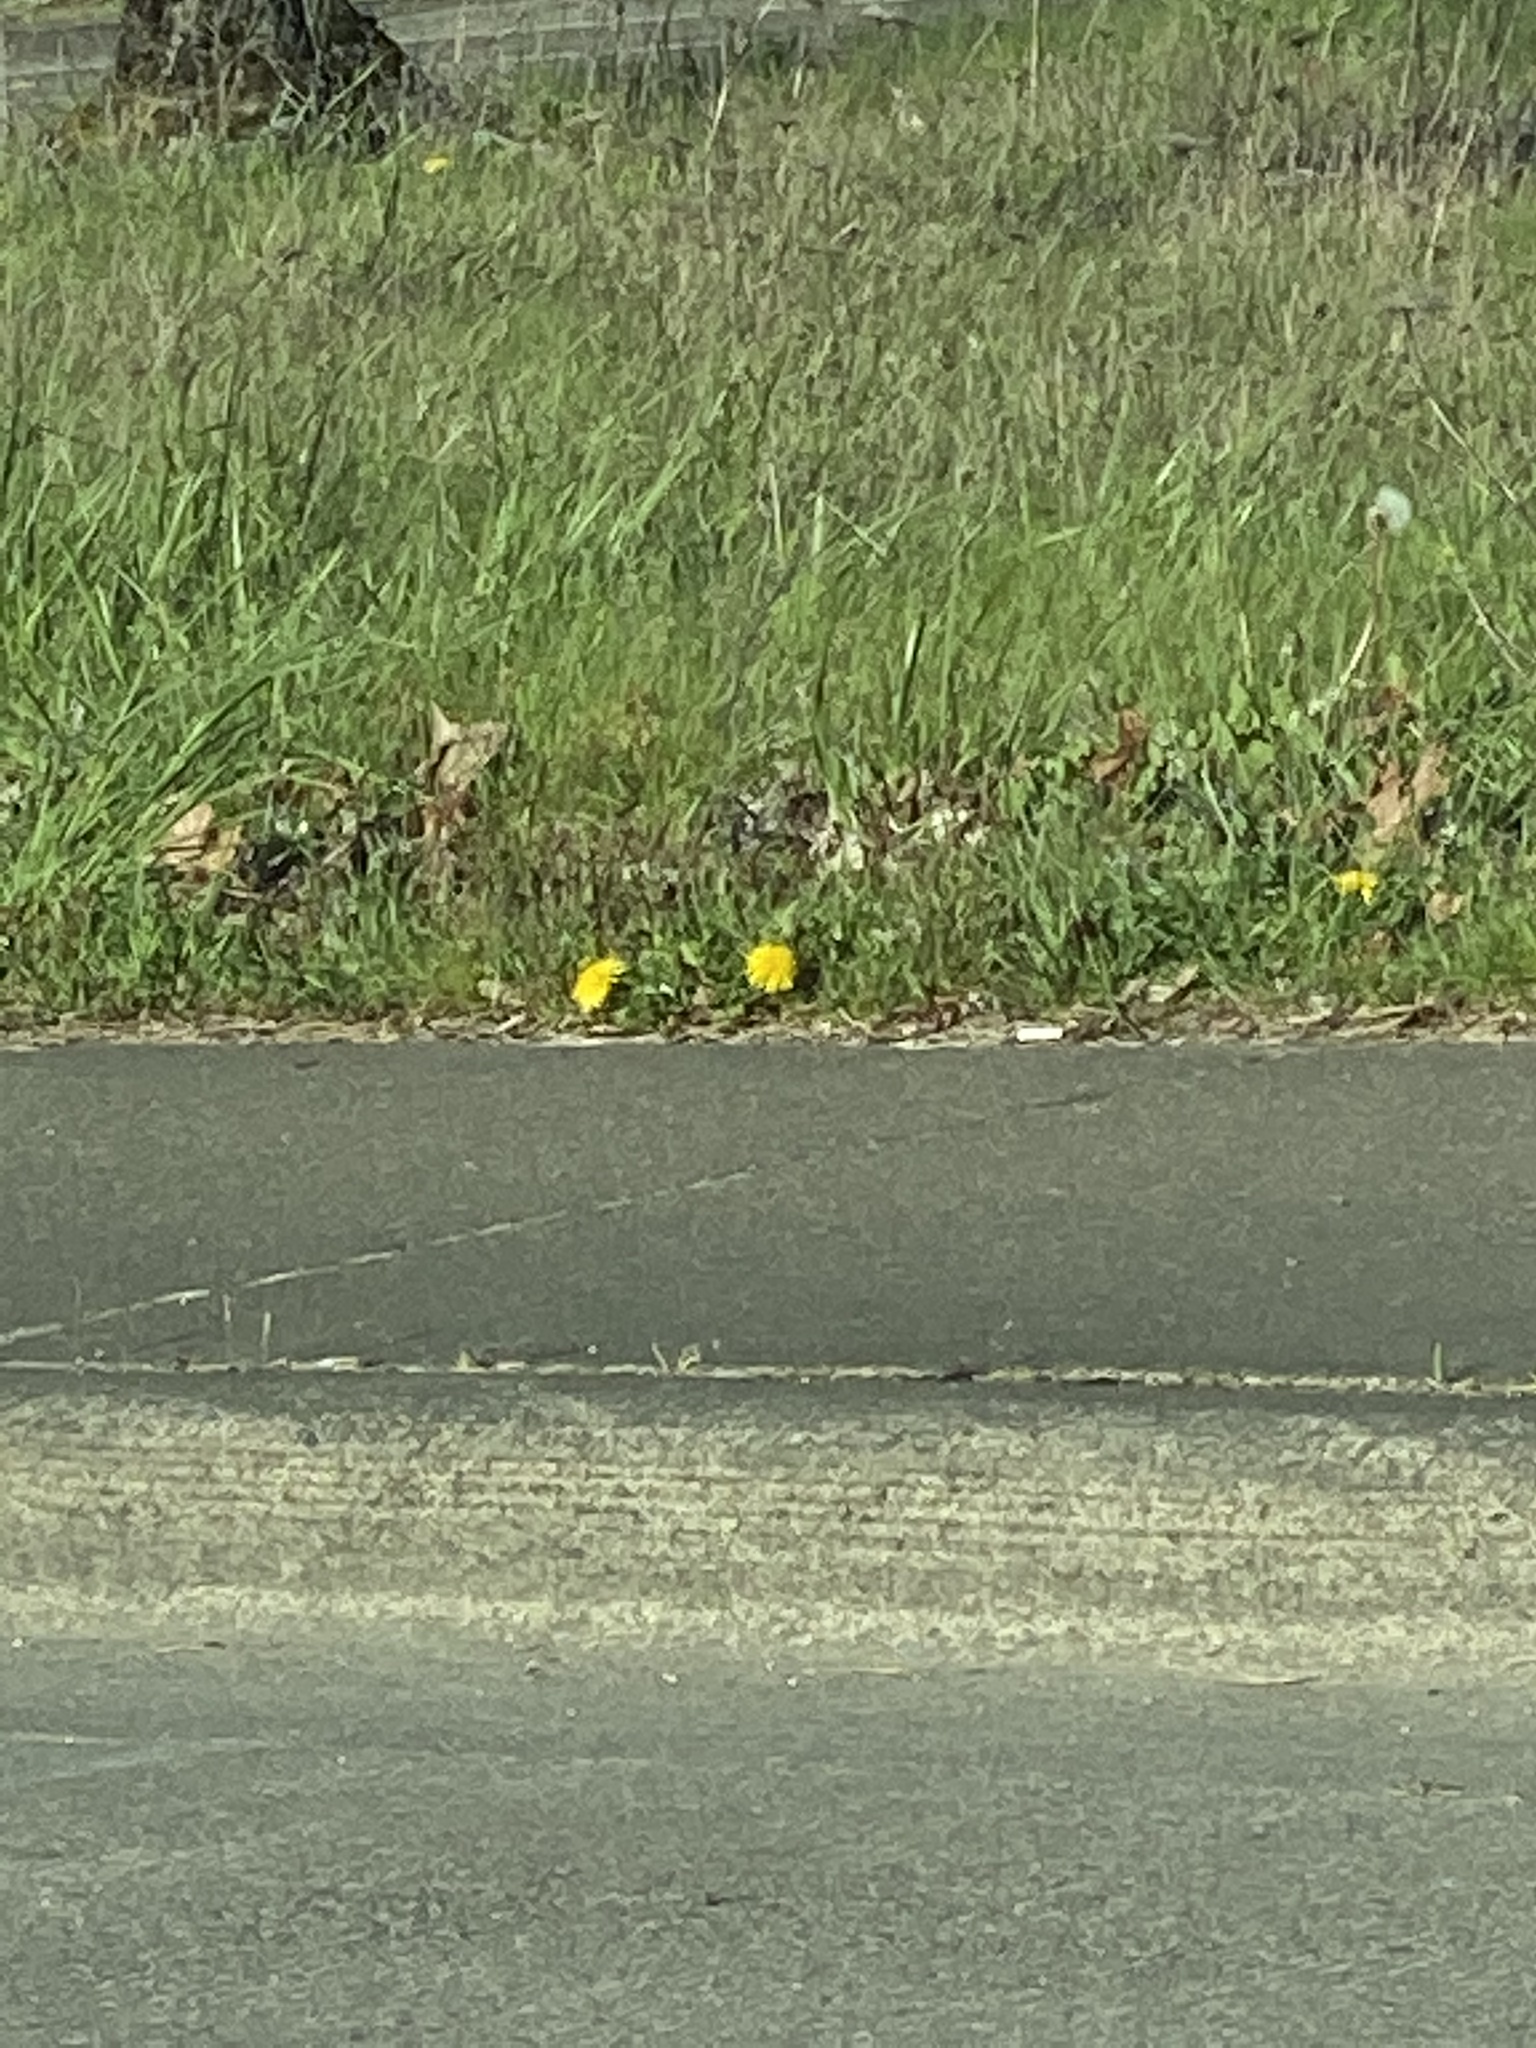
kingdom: Plantae
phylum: Tracheophyta
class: Magnoliopsida
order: Asterales
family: Asteraceae
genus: Taraxacum
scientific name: Taraxacum officinale
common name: Common dandelion
